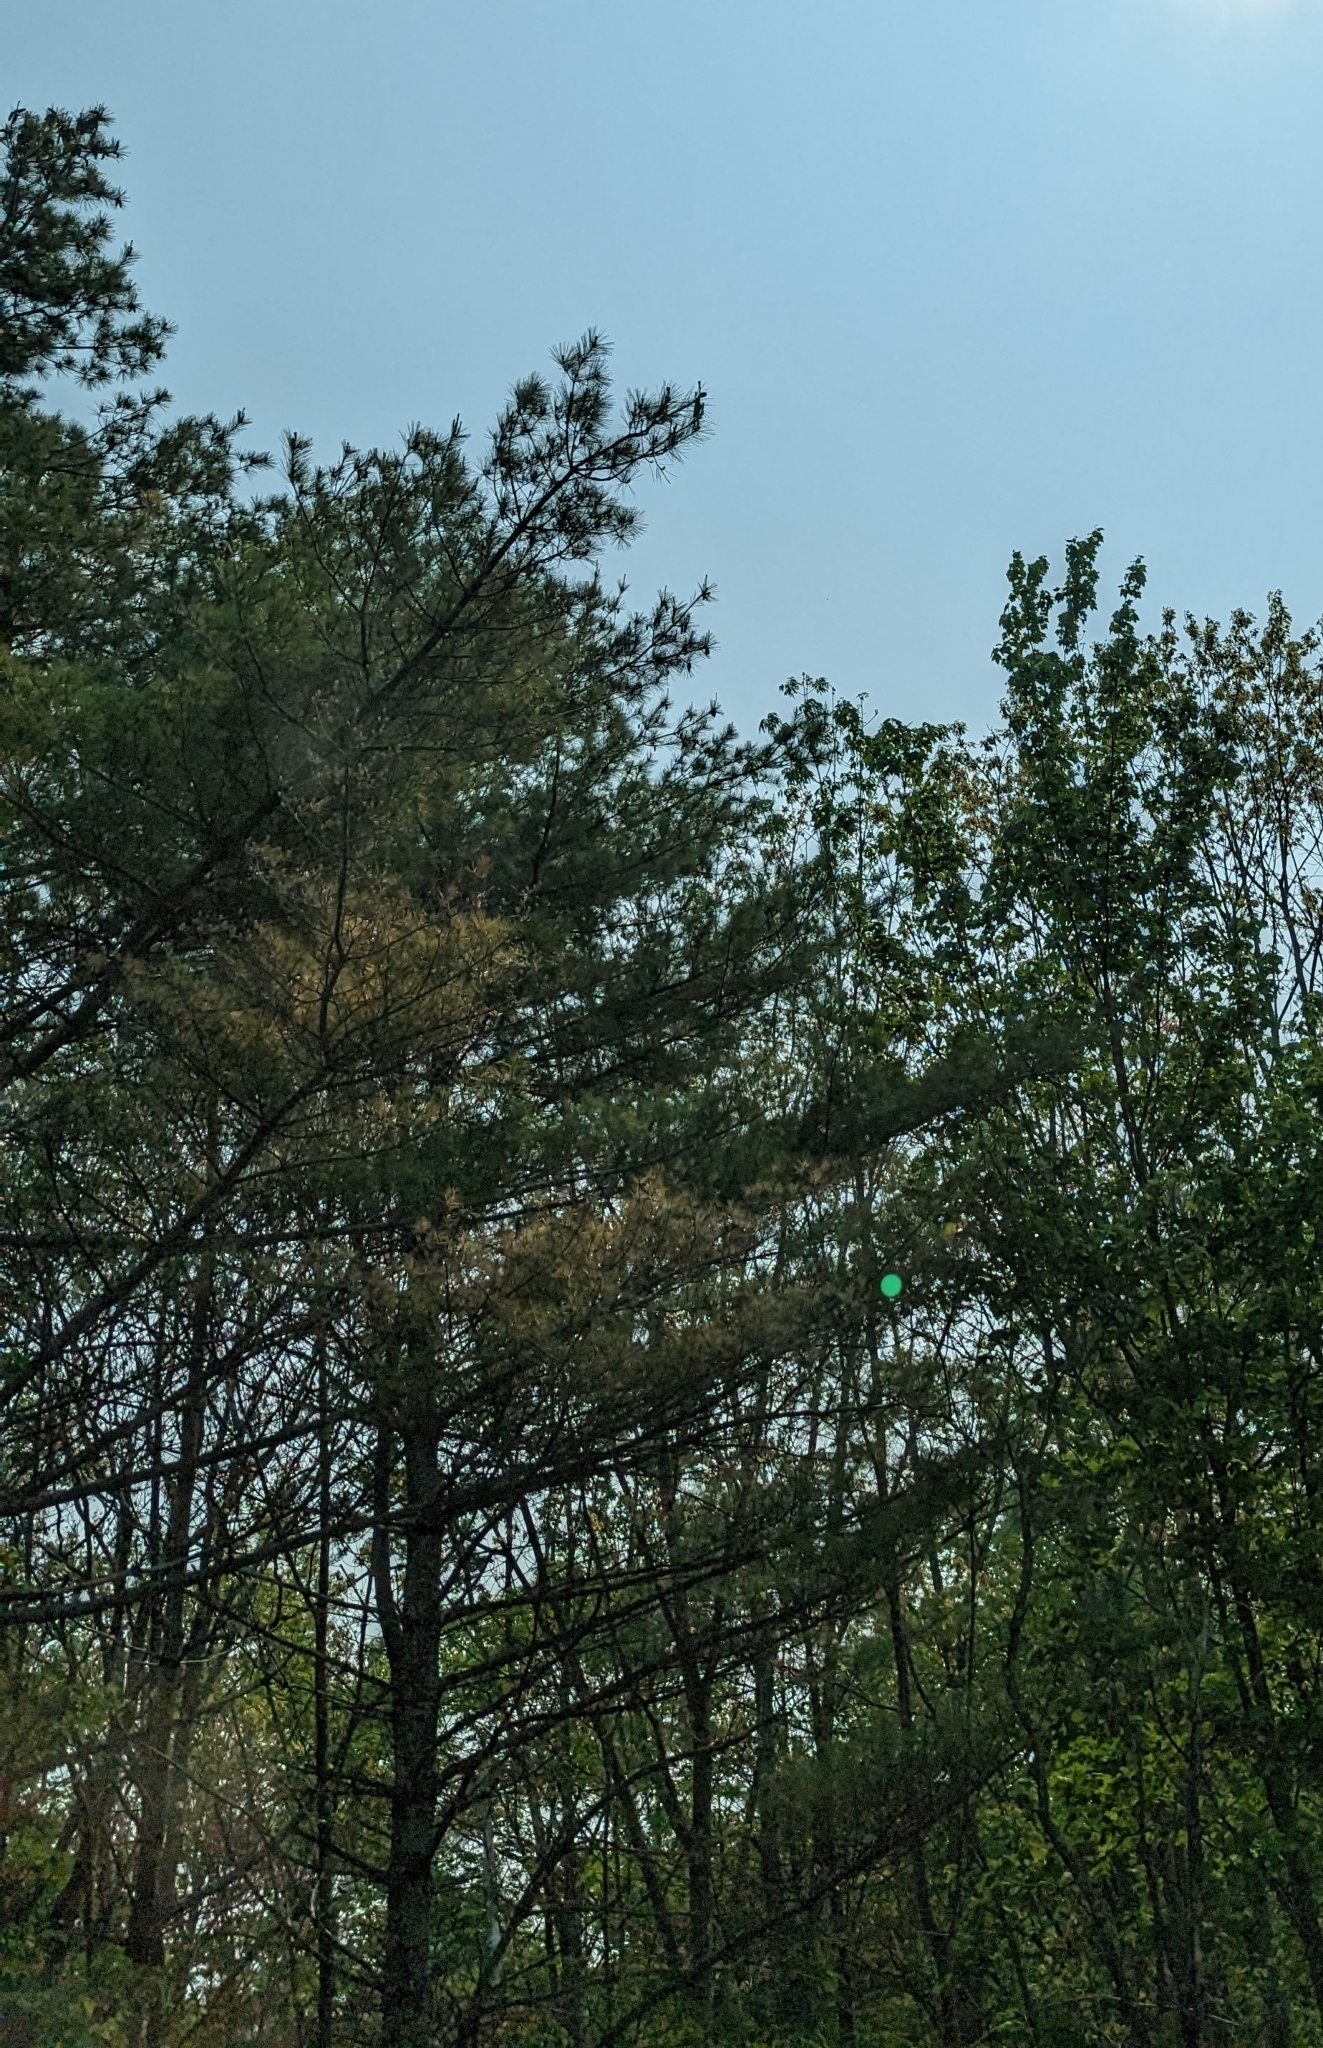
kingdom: Plantae
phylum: Tracheophyta
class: Pinopsida
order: Pinales
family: Pinaceae
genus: Pinus
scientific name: Pinus strobus
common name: Weymouth pine
